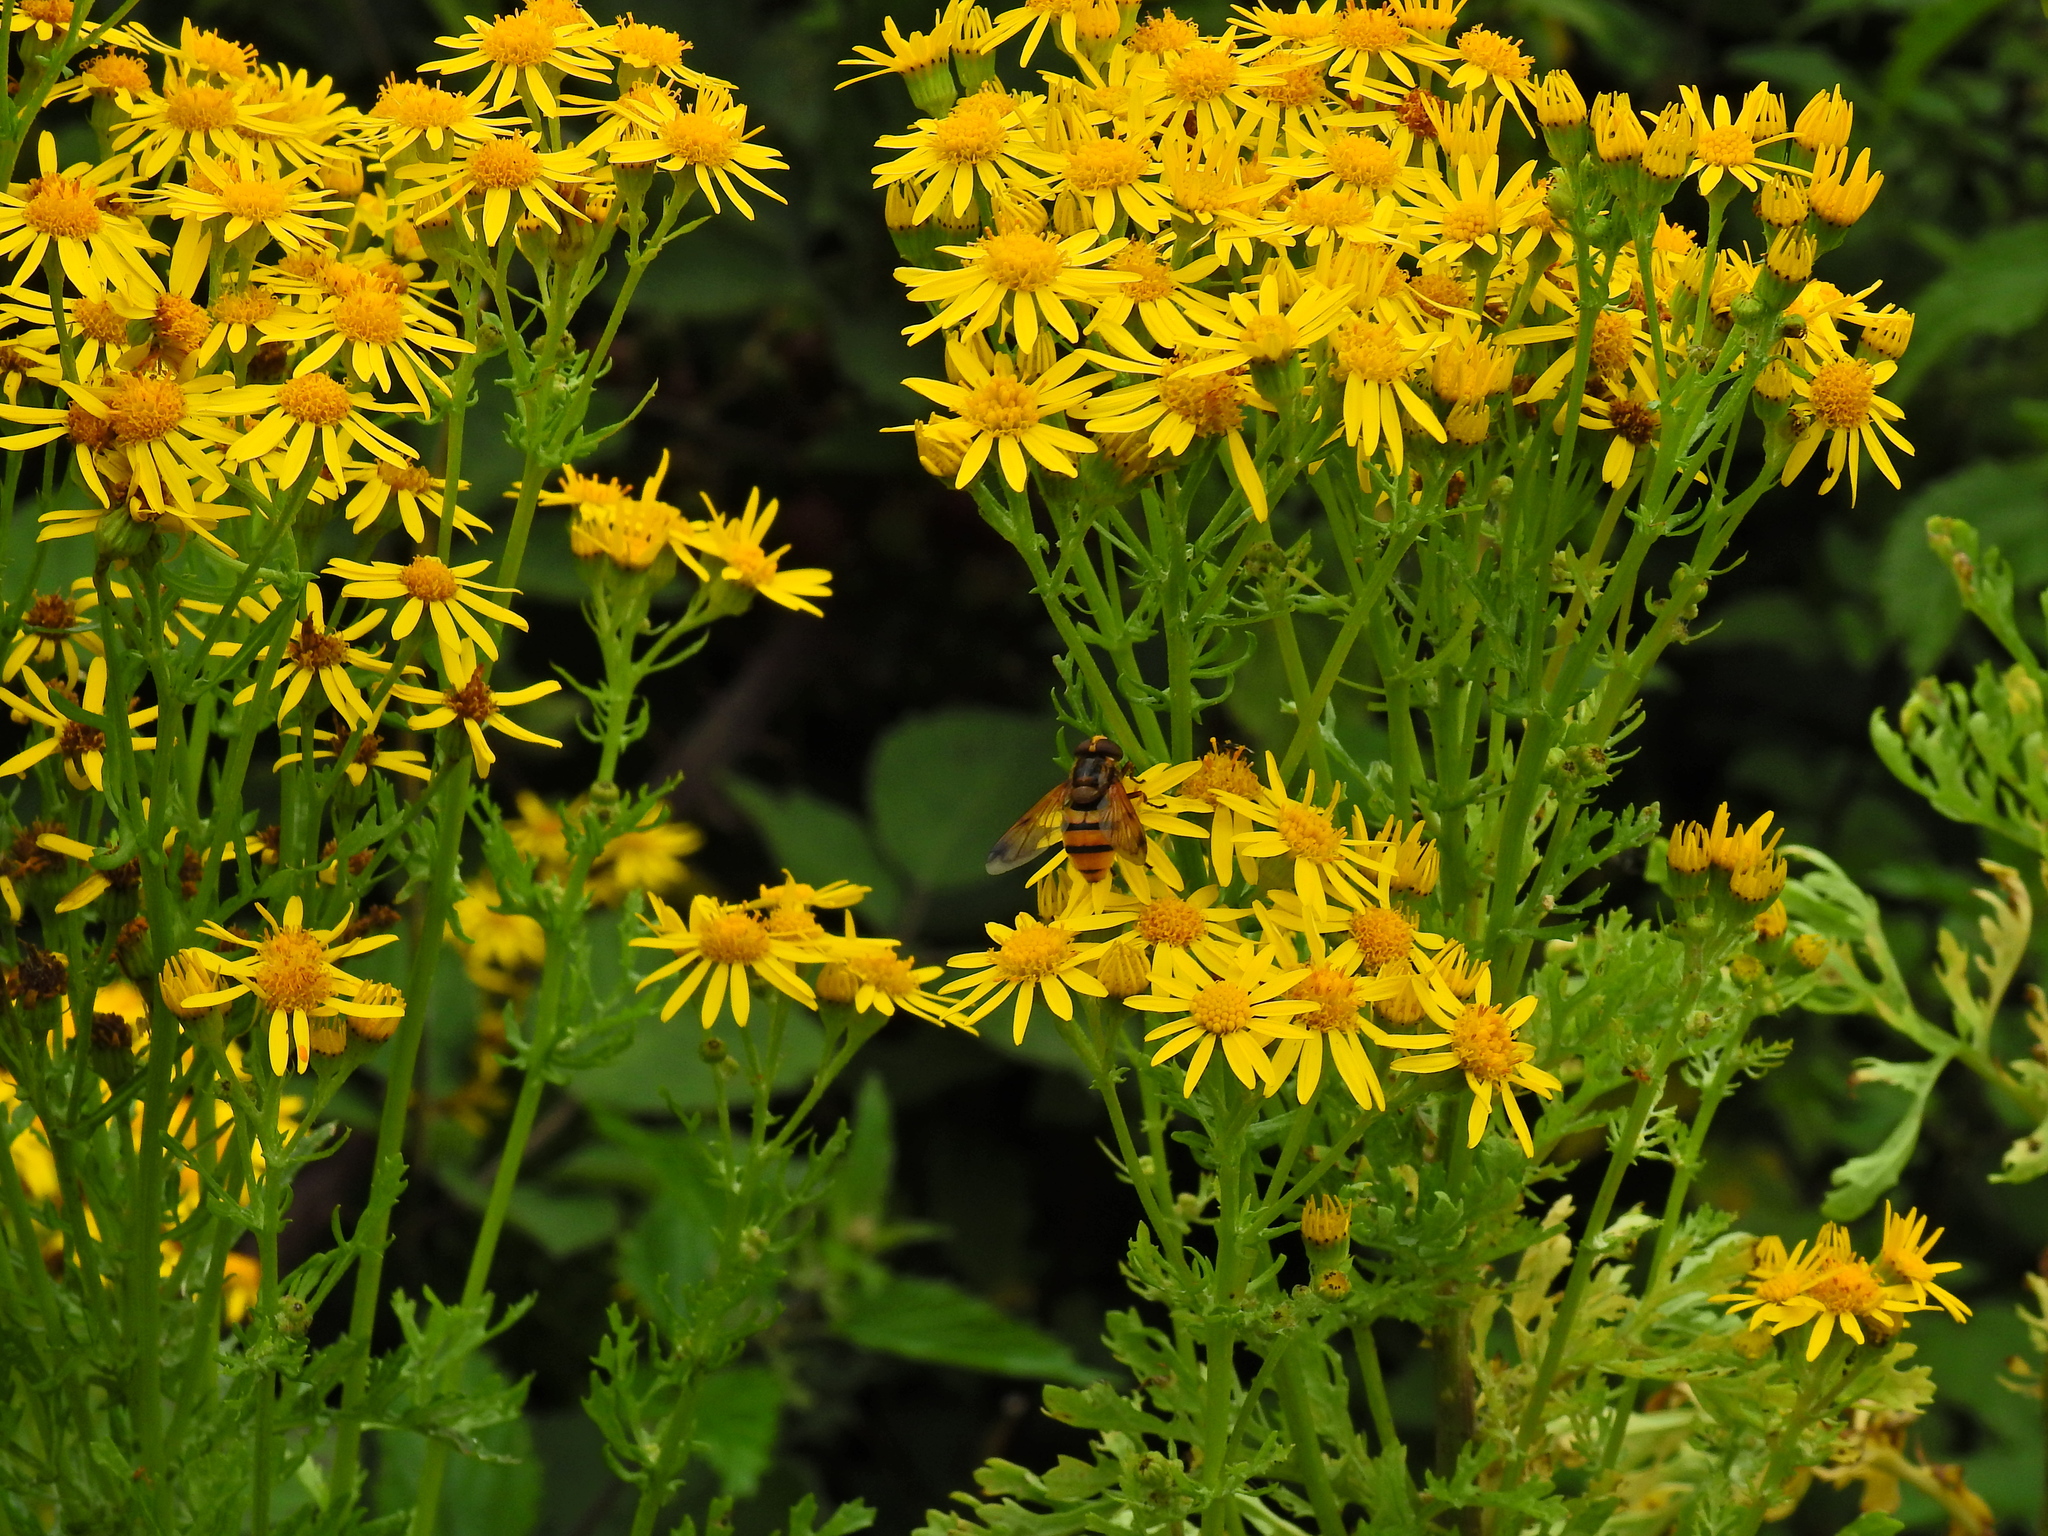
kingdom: Animalia
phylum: Arthropoda
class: Insecta
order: Diptera
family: Syrphidae
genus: Volucella
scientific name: Volucella inanis
